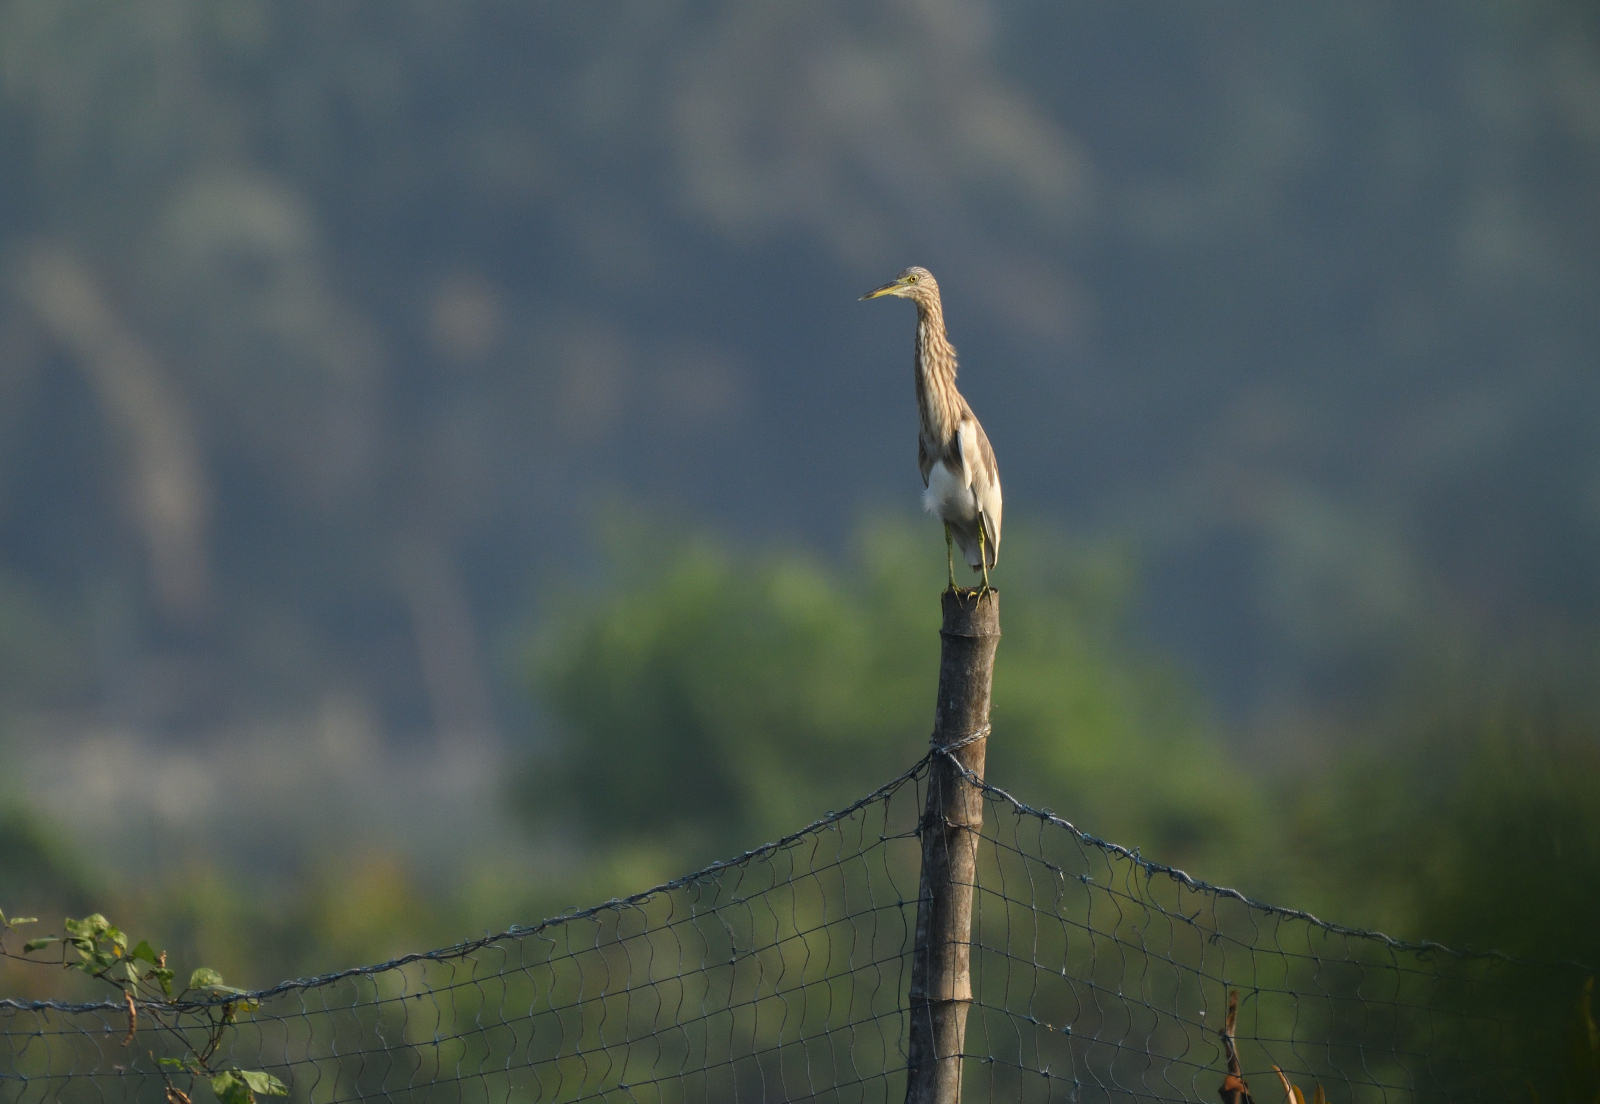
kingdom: Animalia
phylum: Chordata
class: Aves
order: Pelecaniformes
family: Ardeidae
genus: Ardeola
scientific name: Ardeola grayii
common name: Indian pond heron
